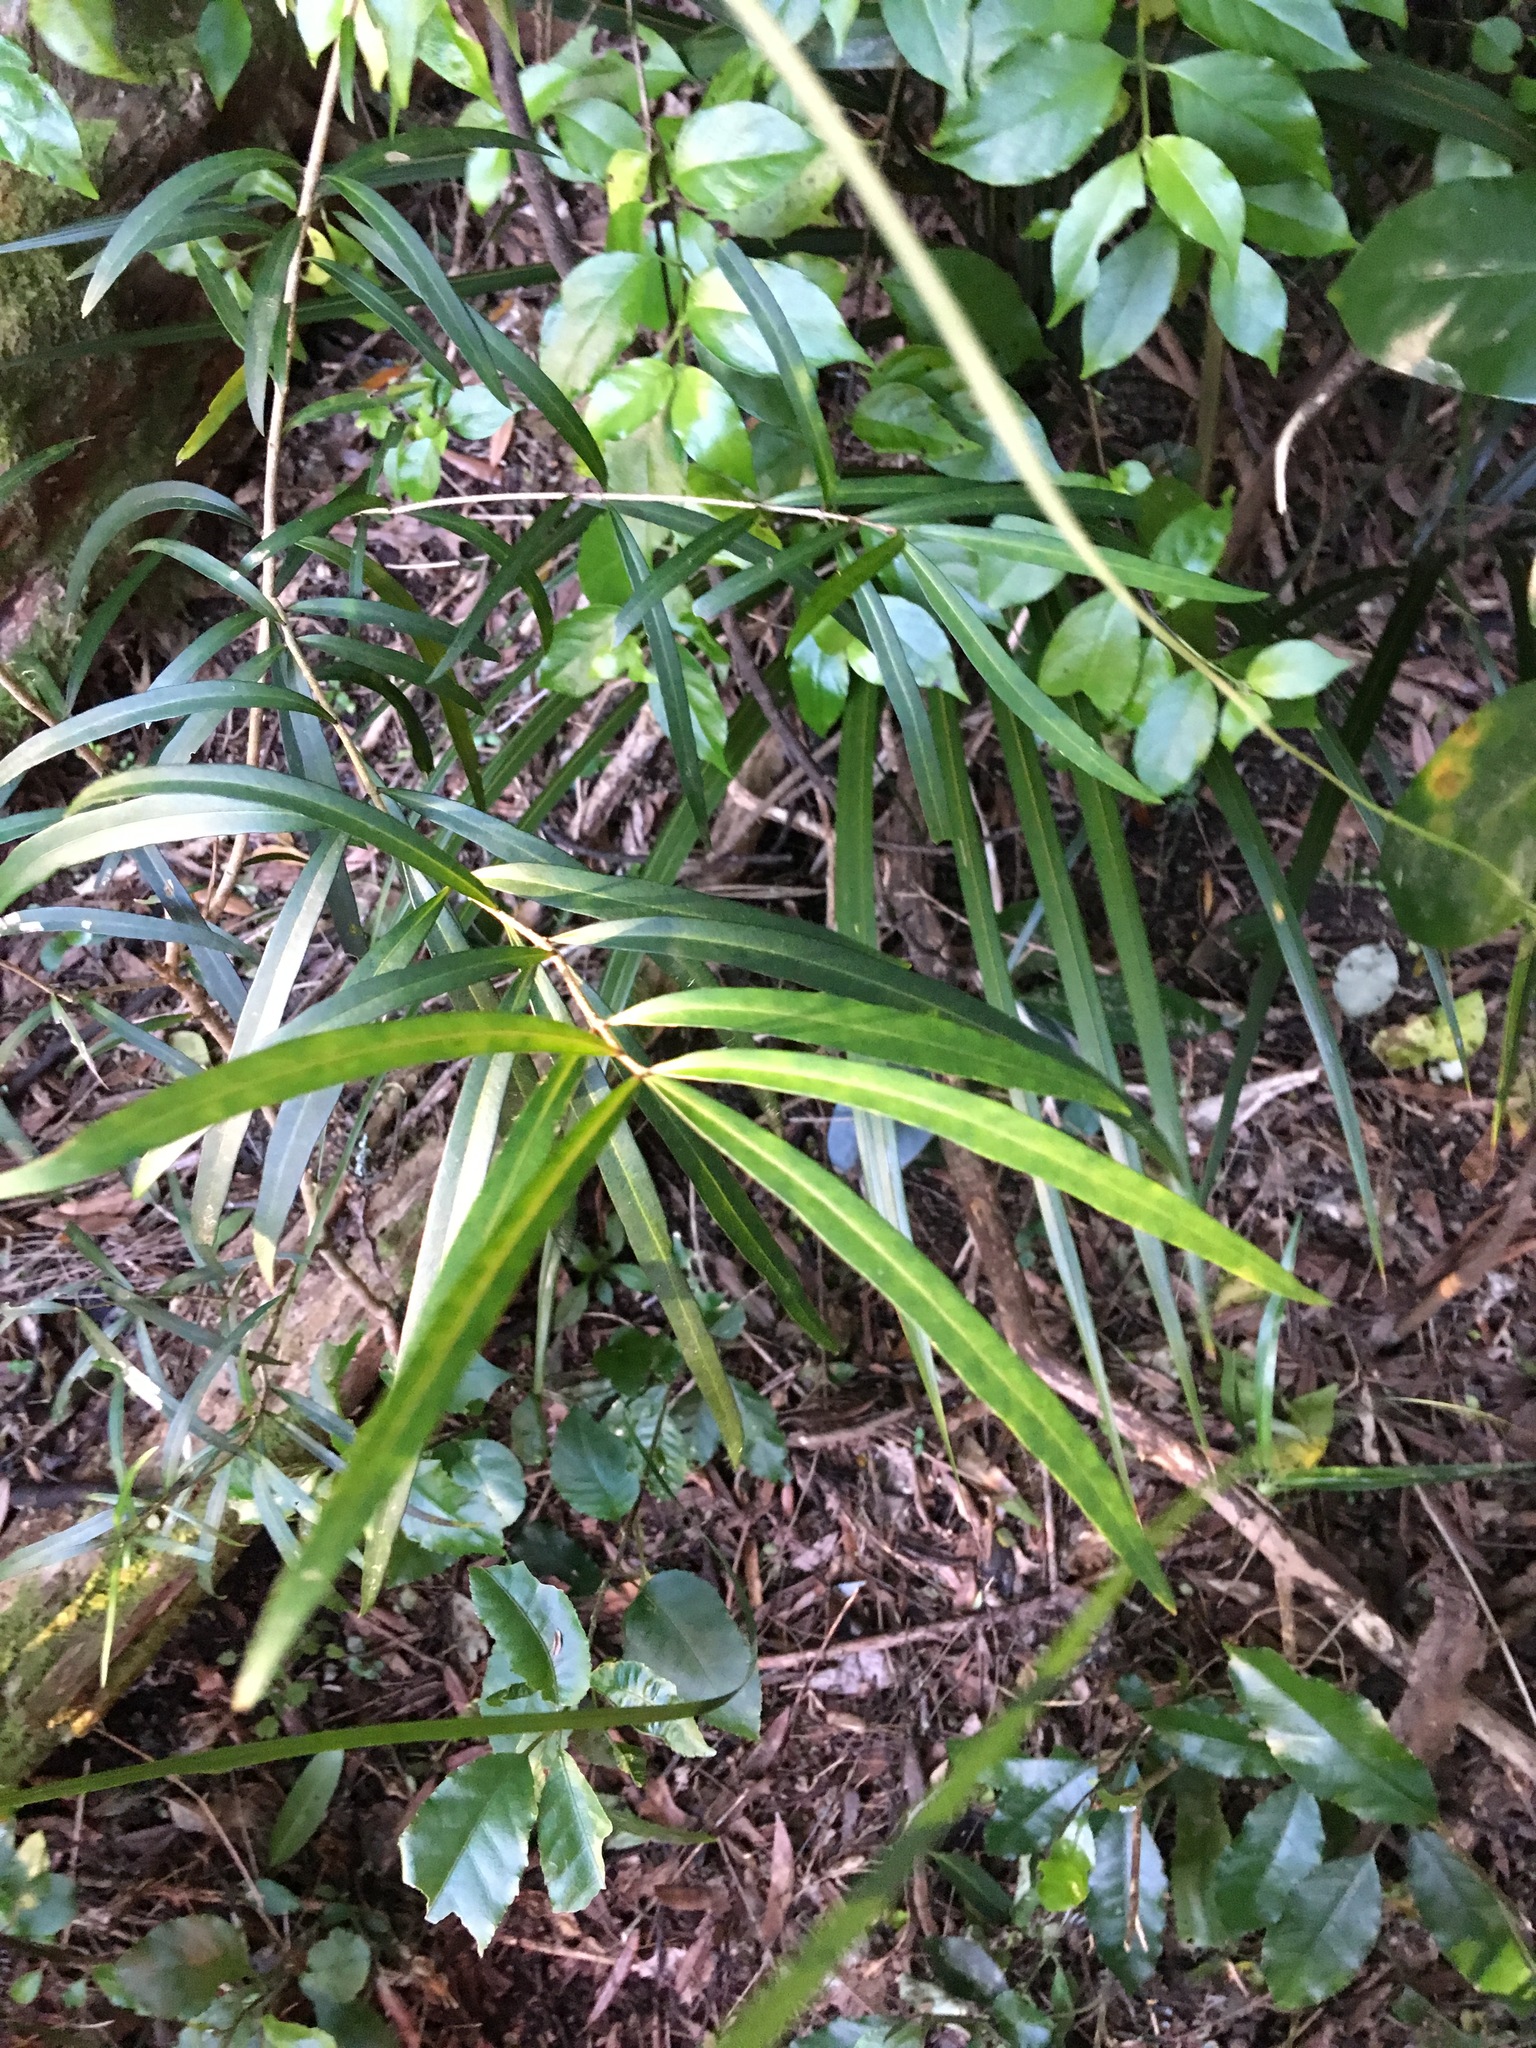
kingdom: Plantae
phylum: Tracheophyta
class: Magnoliopsida
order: Lamiales
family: Oleaceae
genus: Nestegis
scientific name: Nestegis lanceolata
